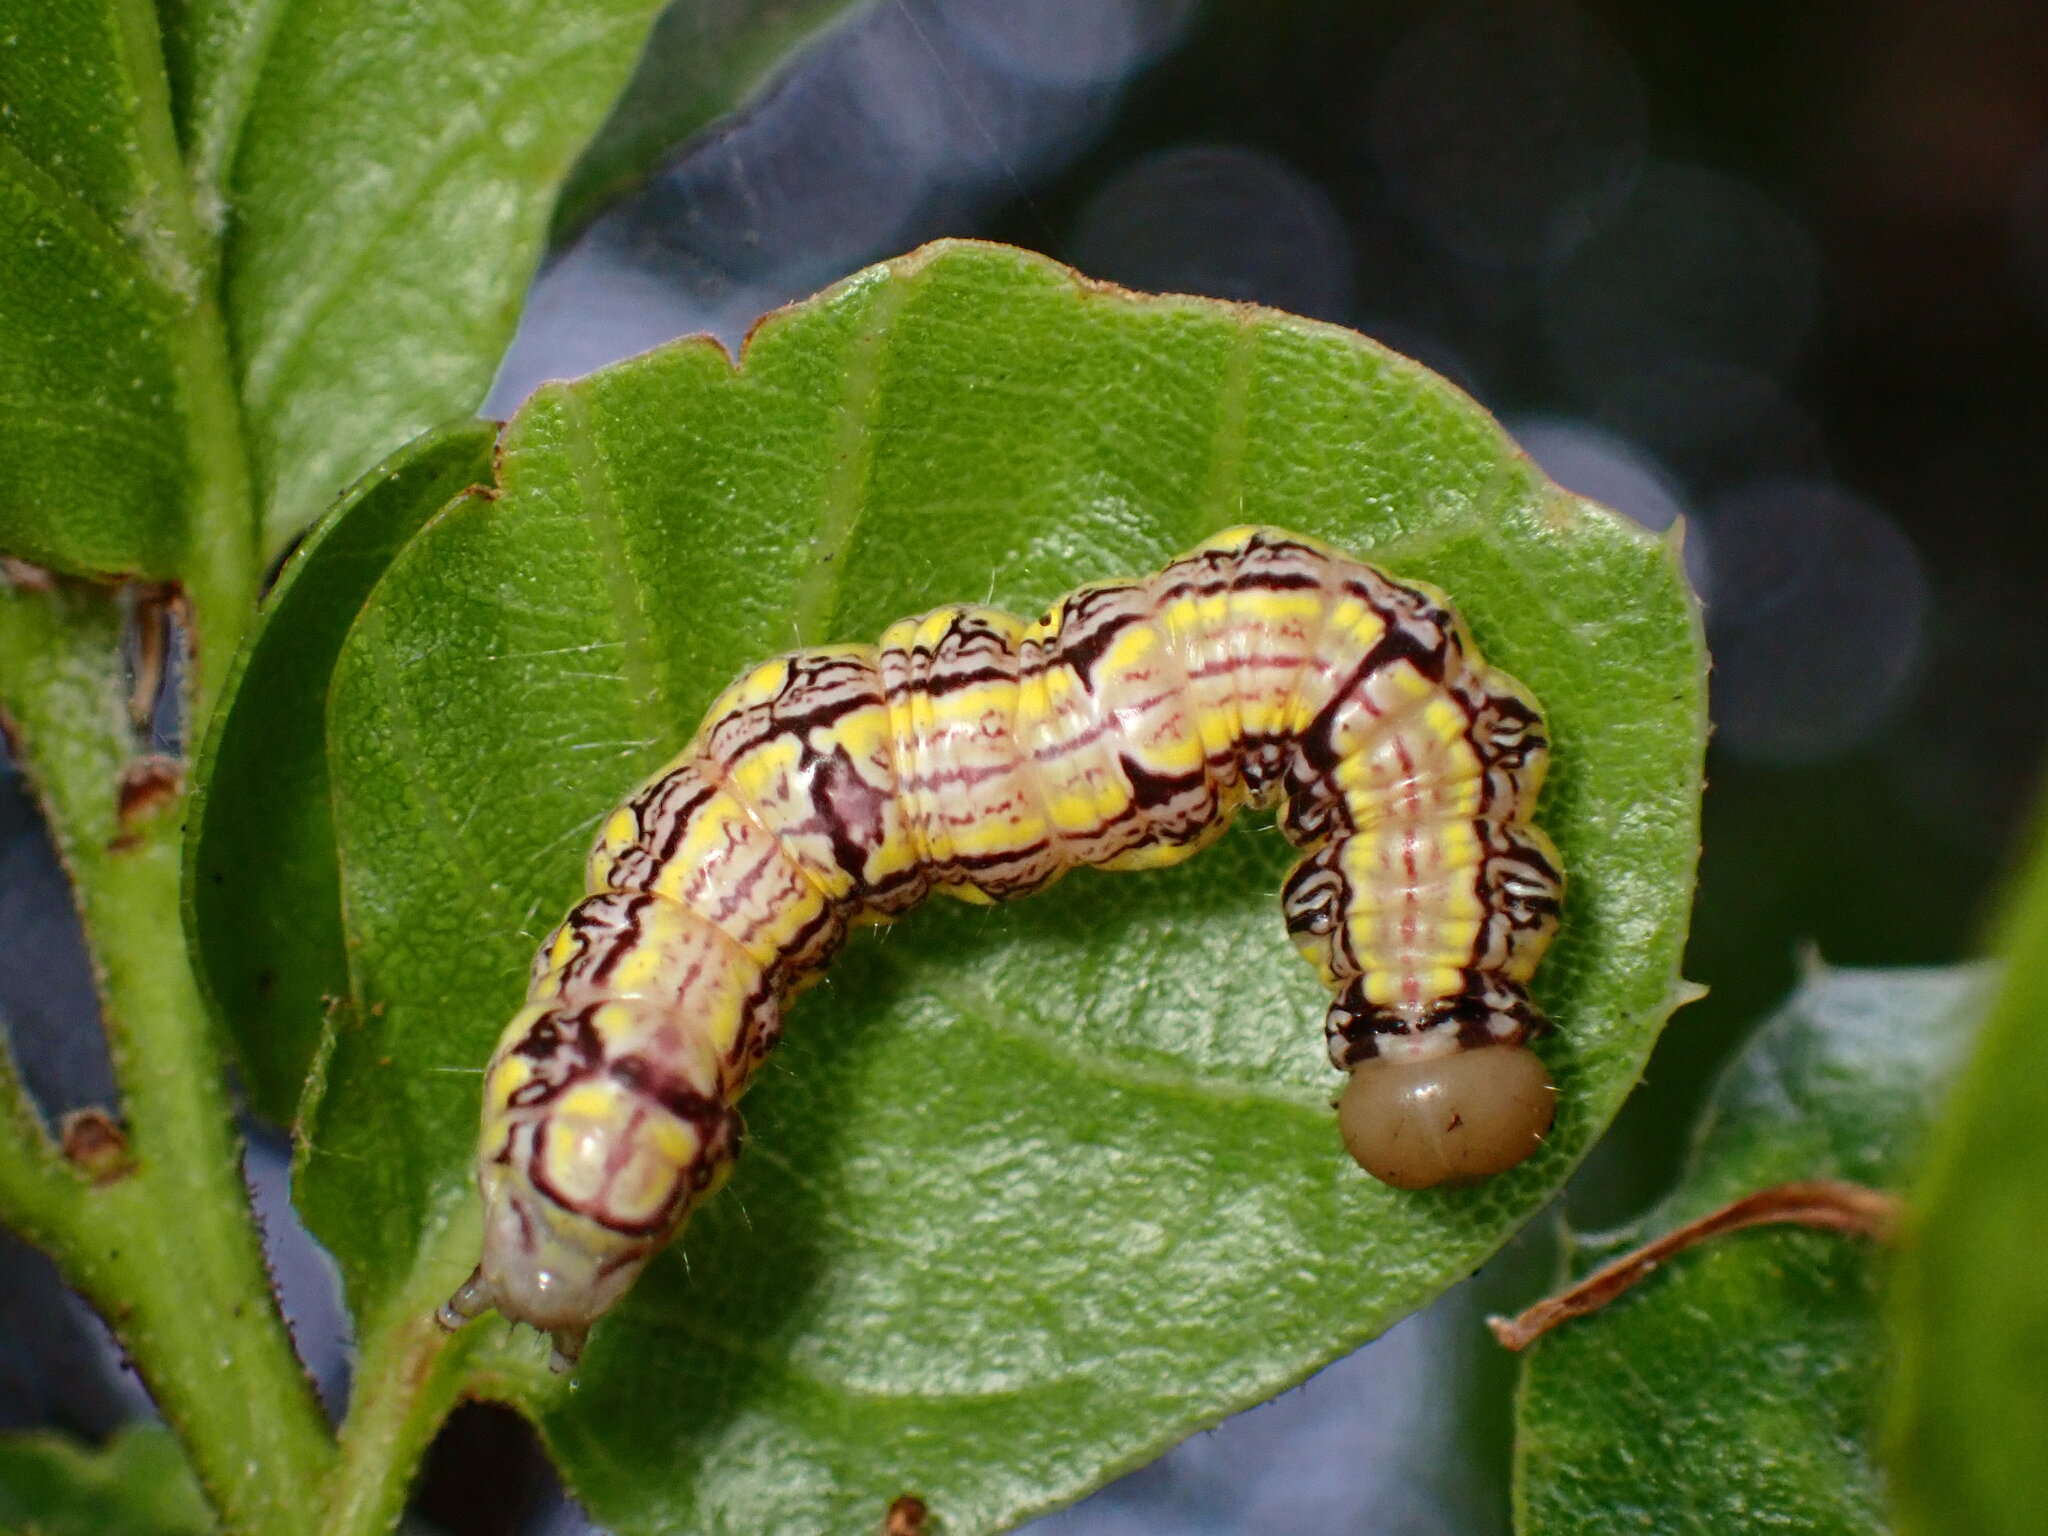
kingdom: Animalia
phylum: Arthropoda
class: Insecta
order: Lepidoptera
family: Notodontidae
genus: Phryganidia
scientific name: Phryganidia californica
